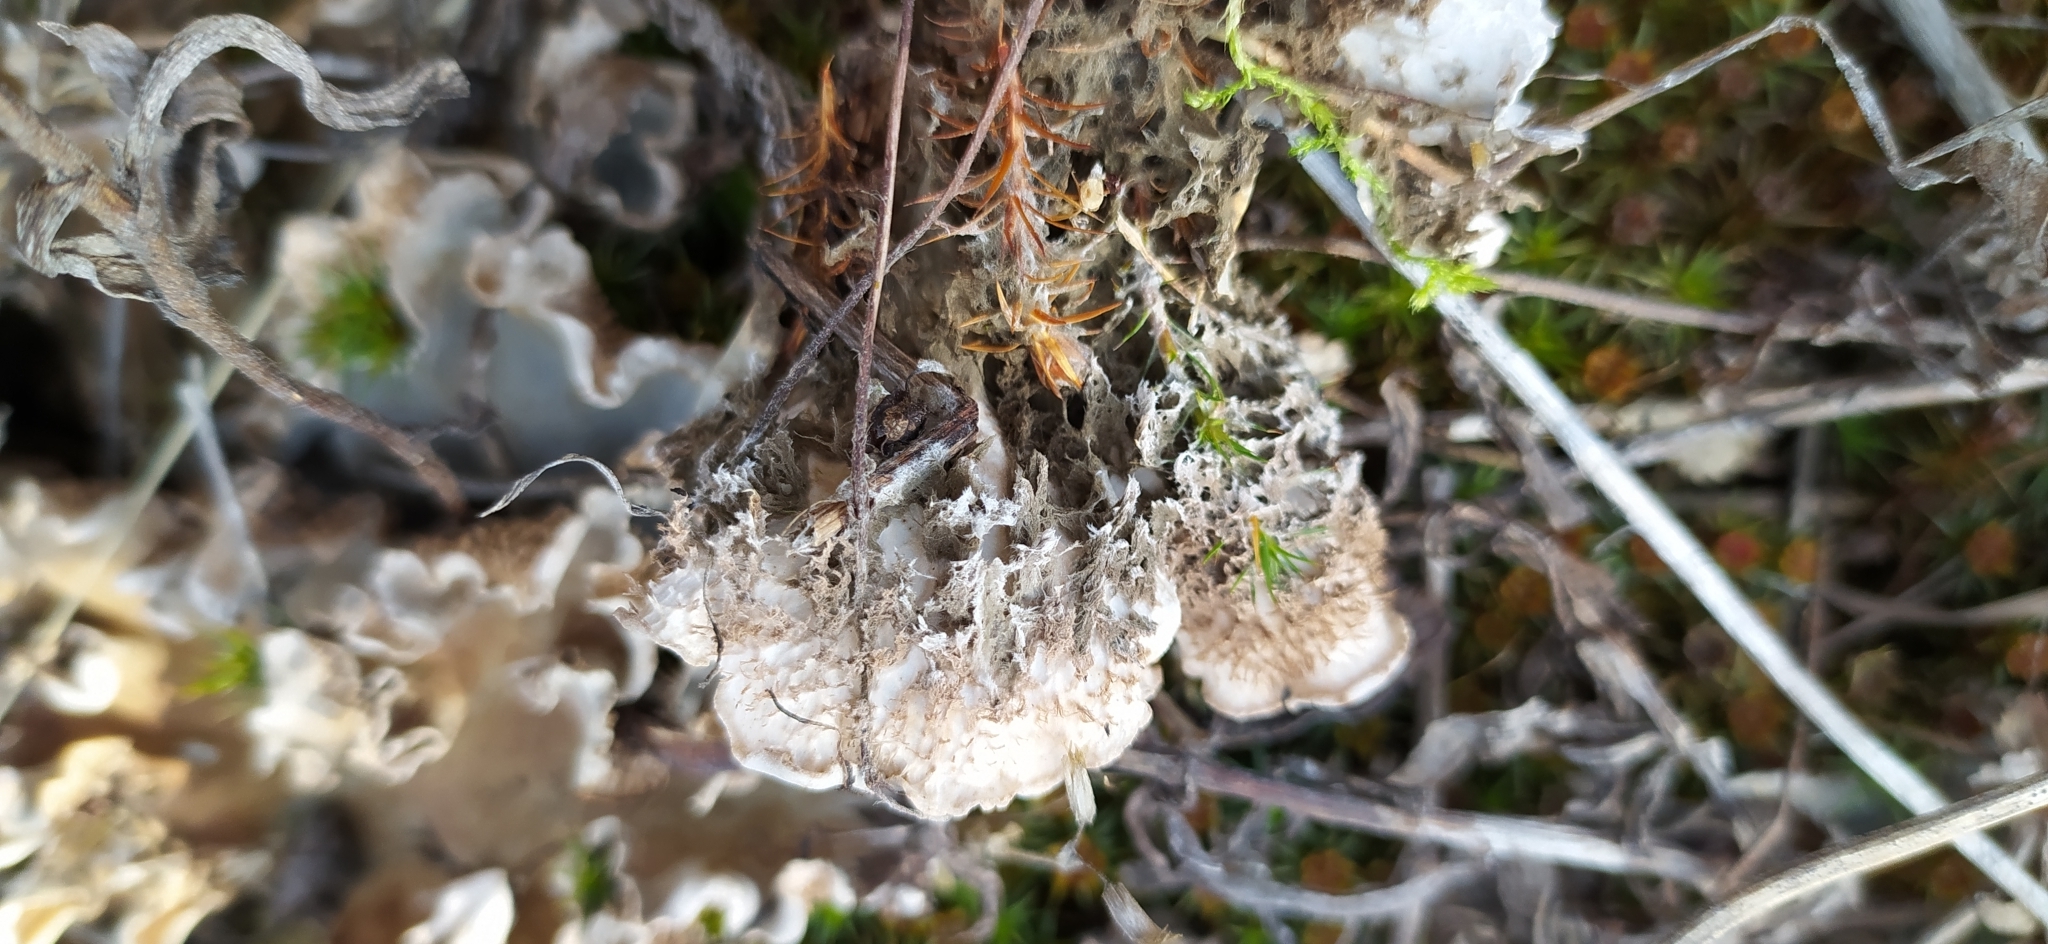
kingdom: Fungi
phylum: Ascomycota
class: Lecanoromycetes
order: Peltigerales
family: Peltigeraceae
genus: Peltigera
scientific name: Peltigera rufescens
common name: Field dog lichen
